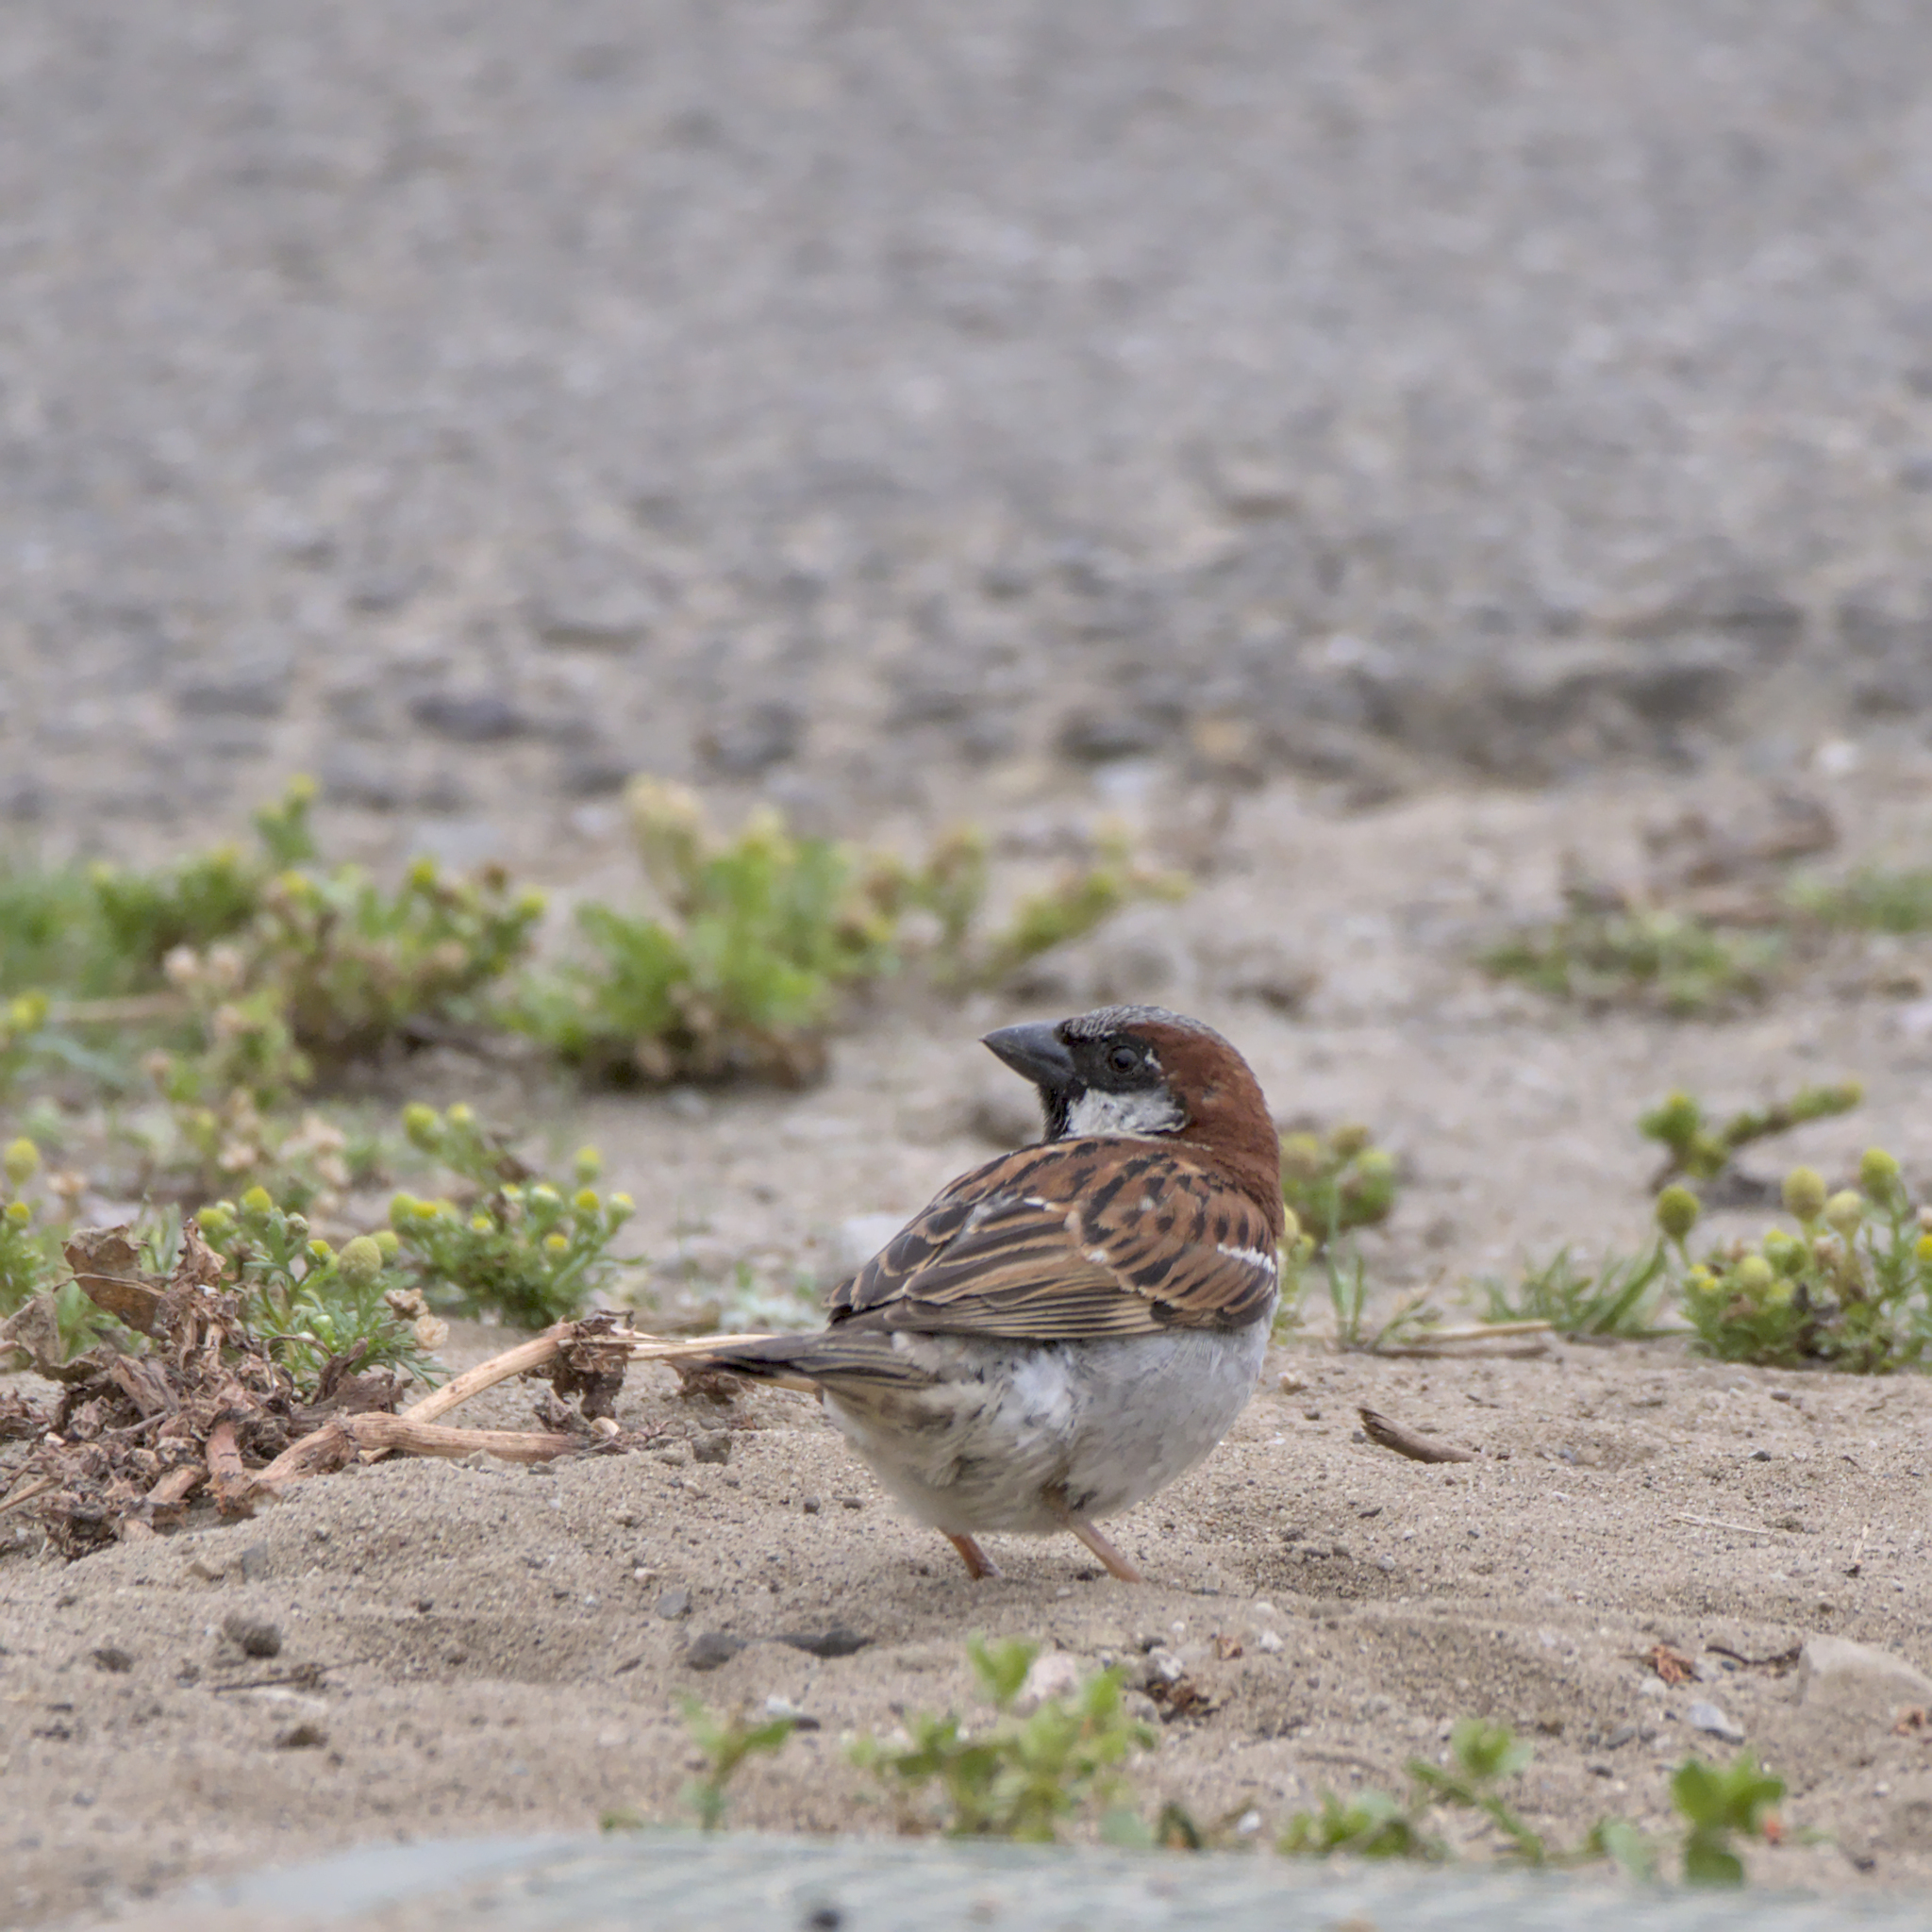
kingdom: Animalia
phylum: Chordata
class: Aves
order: Passeriformes
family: Passeridae
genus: Passer
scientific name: Passer domesticus
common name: House sparrow
